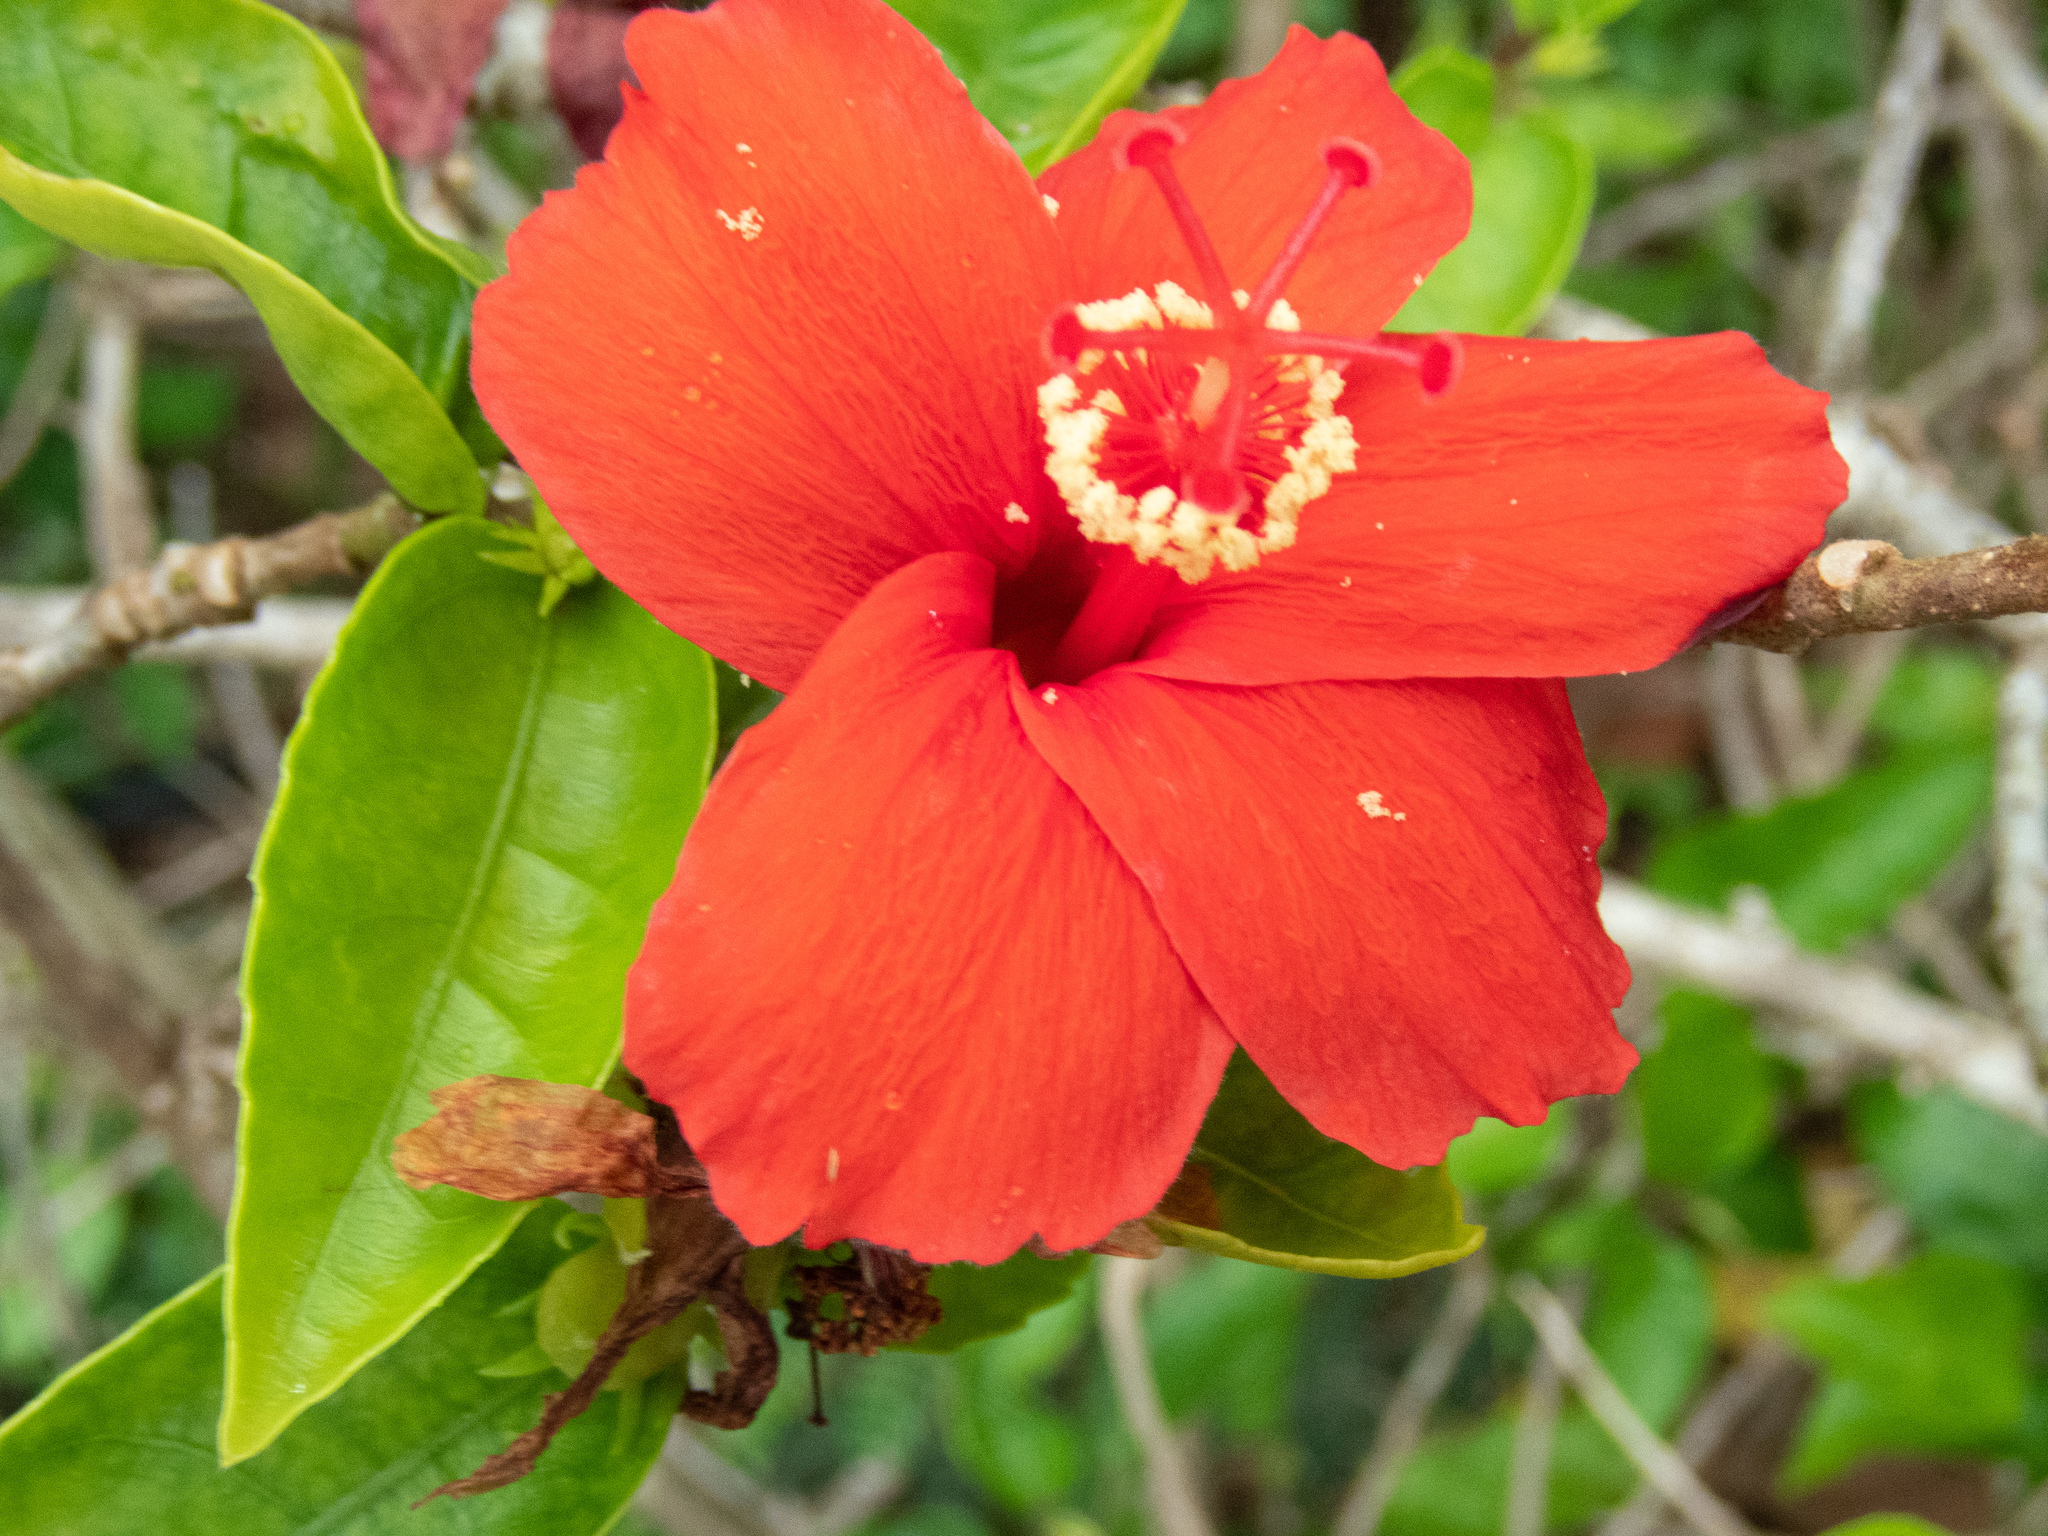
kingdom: Plantae
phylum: Tracheophyta
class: Magnoliopsida
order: Malvales
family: Malvaceae
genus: Hibiscus
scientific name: Hibiscus clayi
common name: Clay's hibiscus
